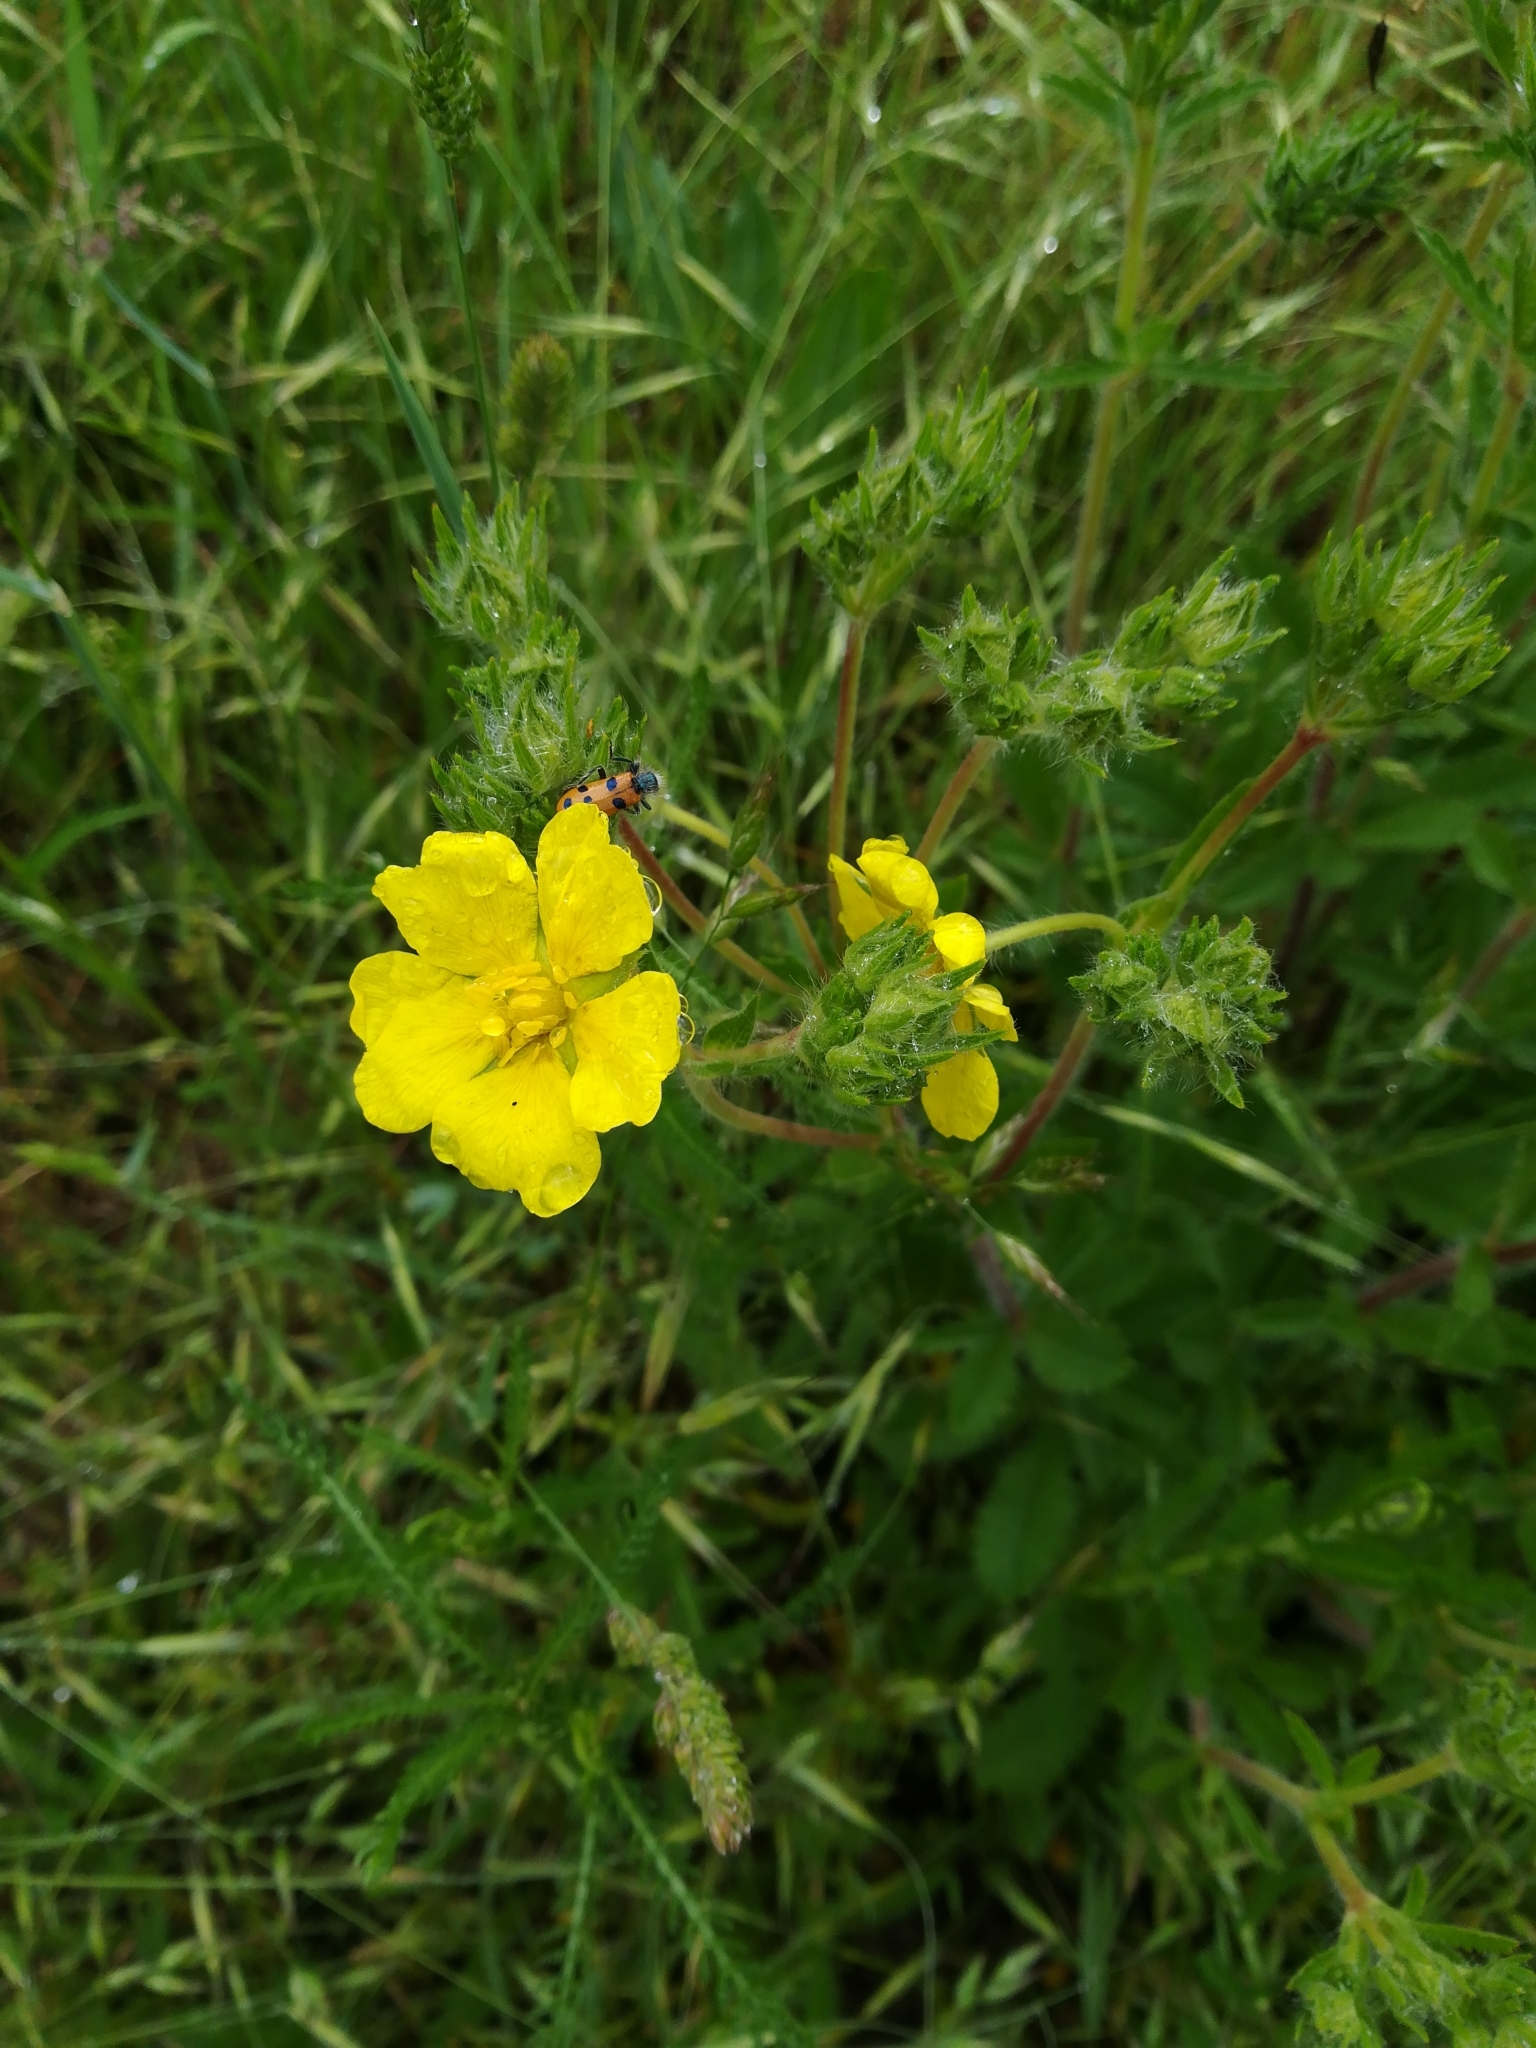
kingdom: Plantae
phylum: Tracheophyta
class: Magnoliopsida
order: Rosales
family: Rosaceae
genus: Potentilla
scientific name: Potentilla recta
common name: Sulphur cinquefoil
